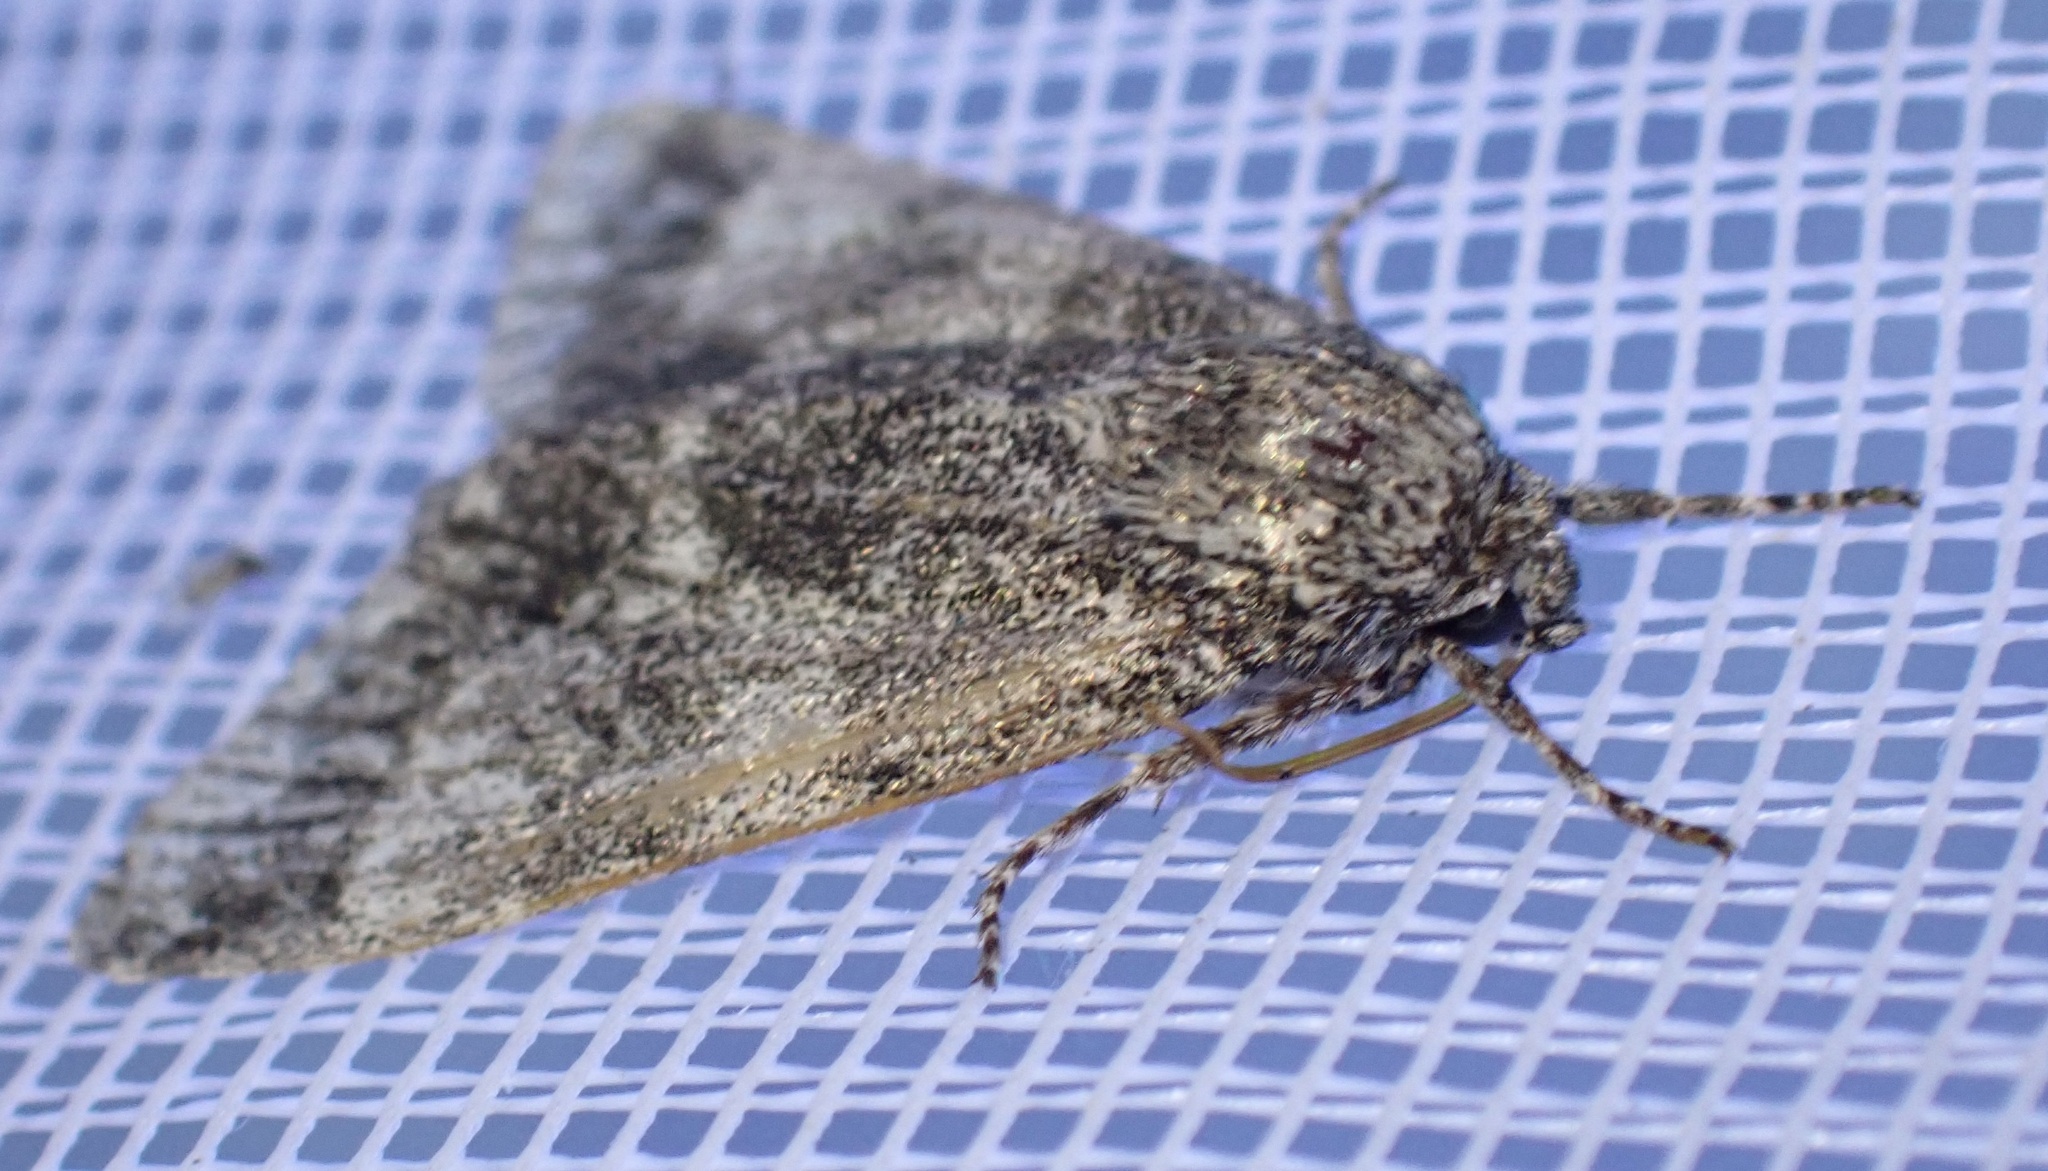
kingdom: Animalia
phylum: Arthropoda
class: Insecta
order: Lepidoptera
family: Noctuidae
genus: Acronicta
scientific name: Acronicta megacephala
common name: Poplar grey
